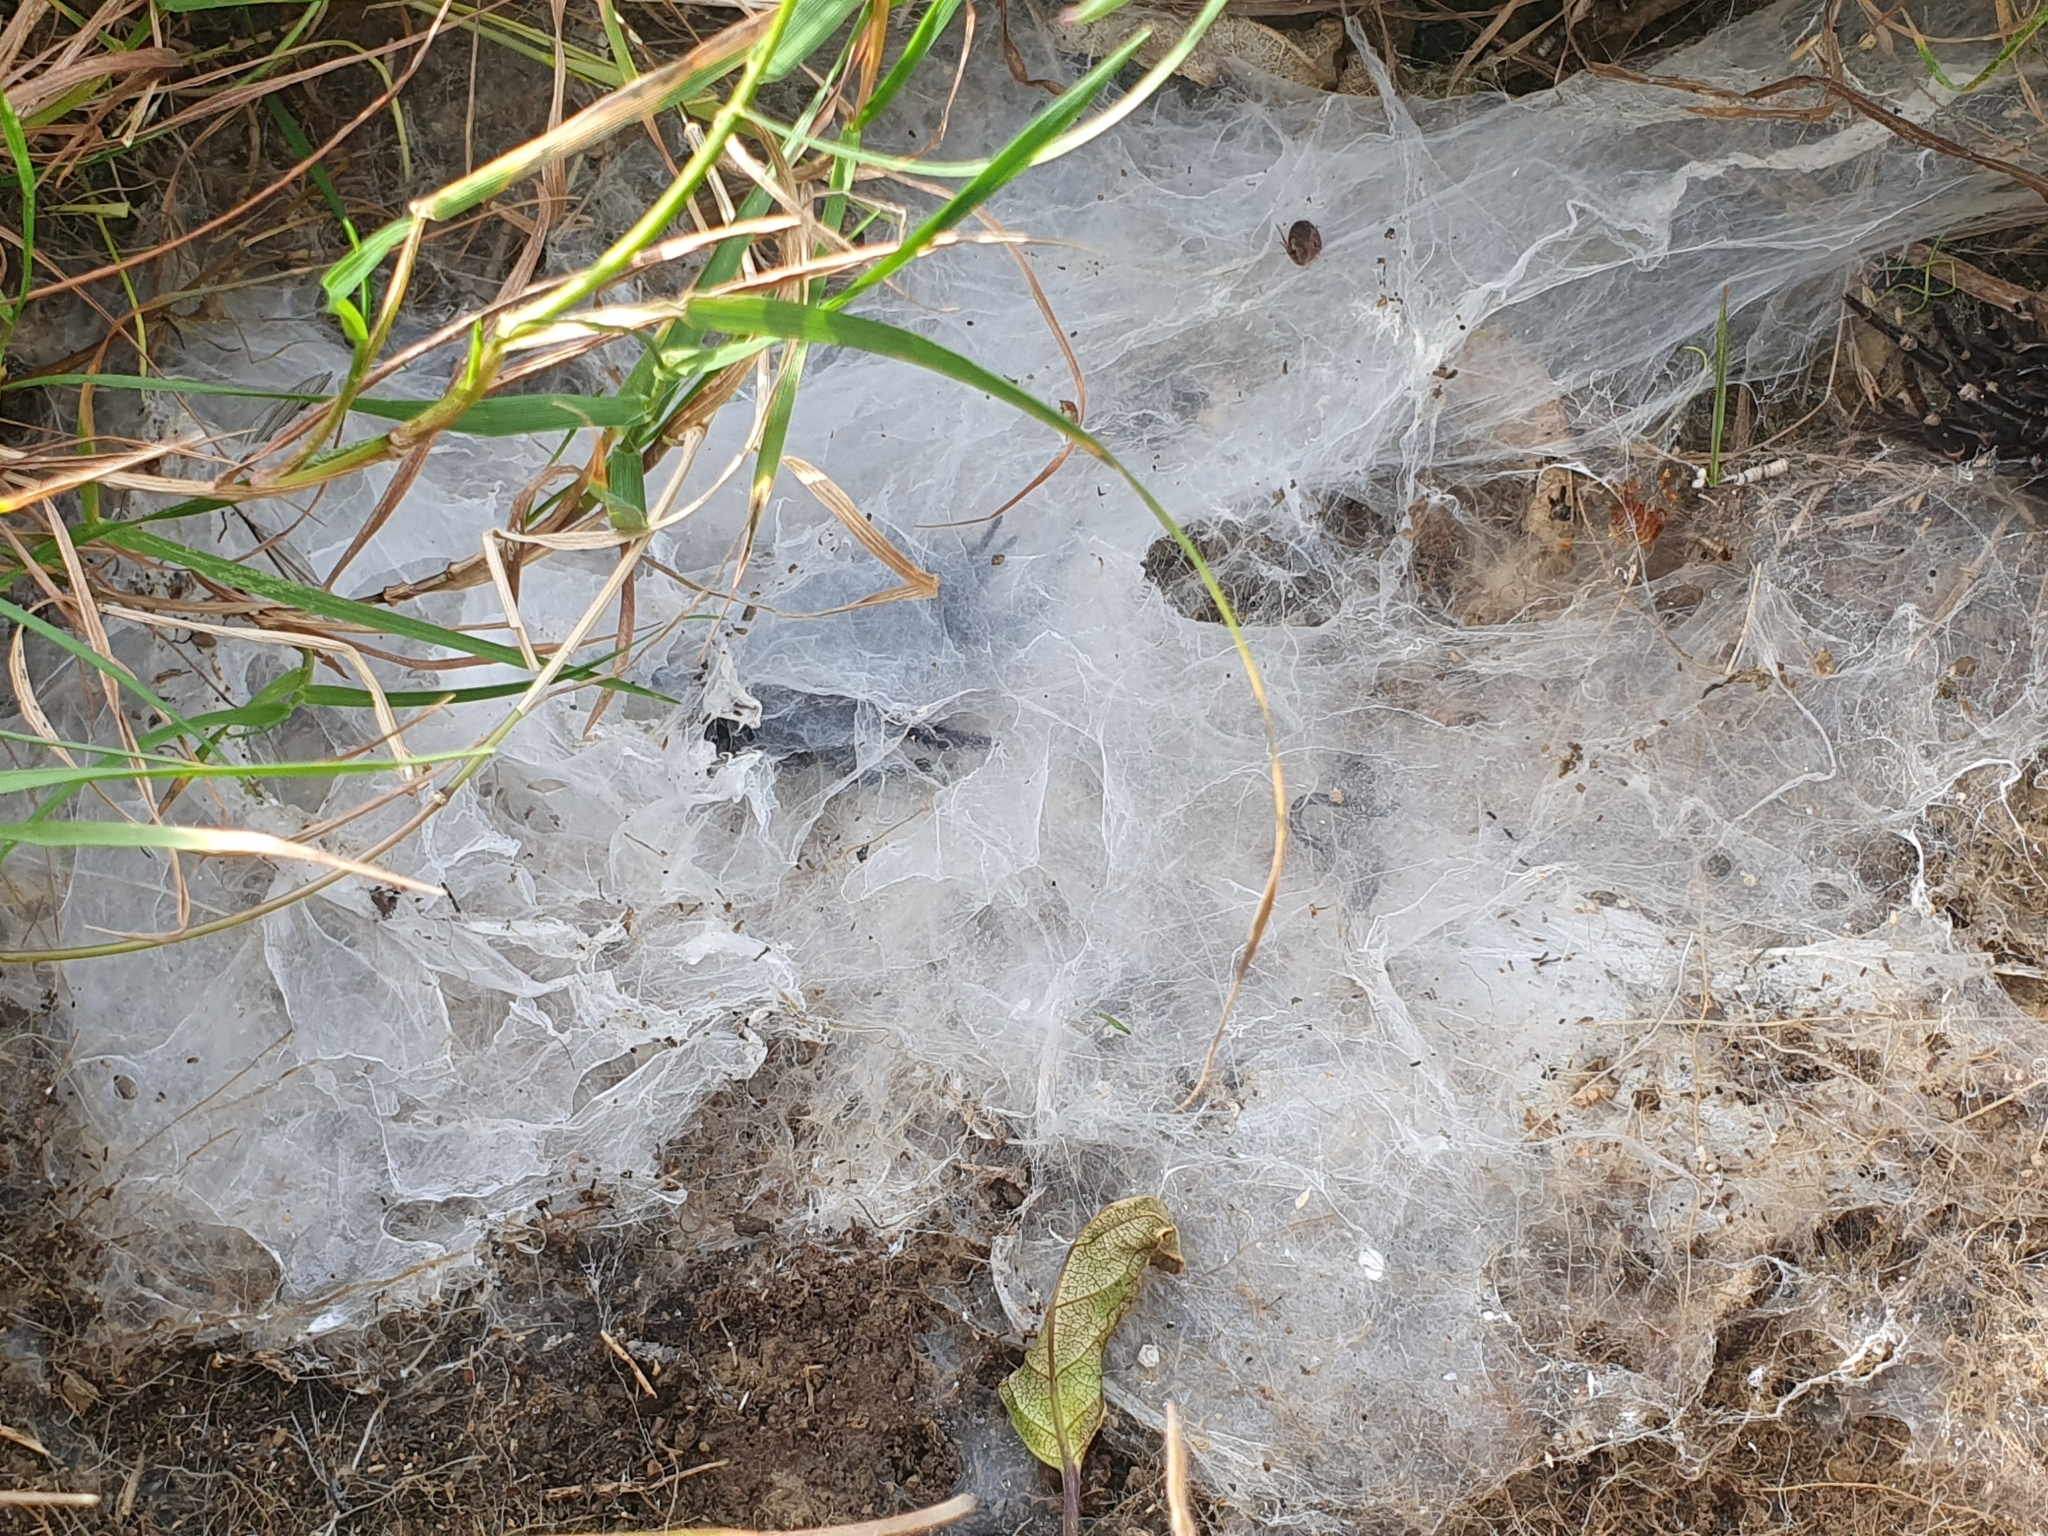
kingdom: Animalia
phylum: Arthropoda
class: Arachnida
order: Araneae
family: Porrhothelidae
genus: Porrhothele
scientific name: Porrhothele antipodiana
